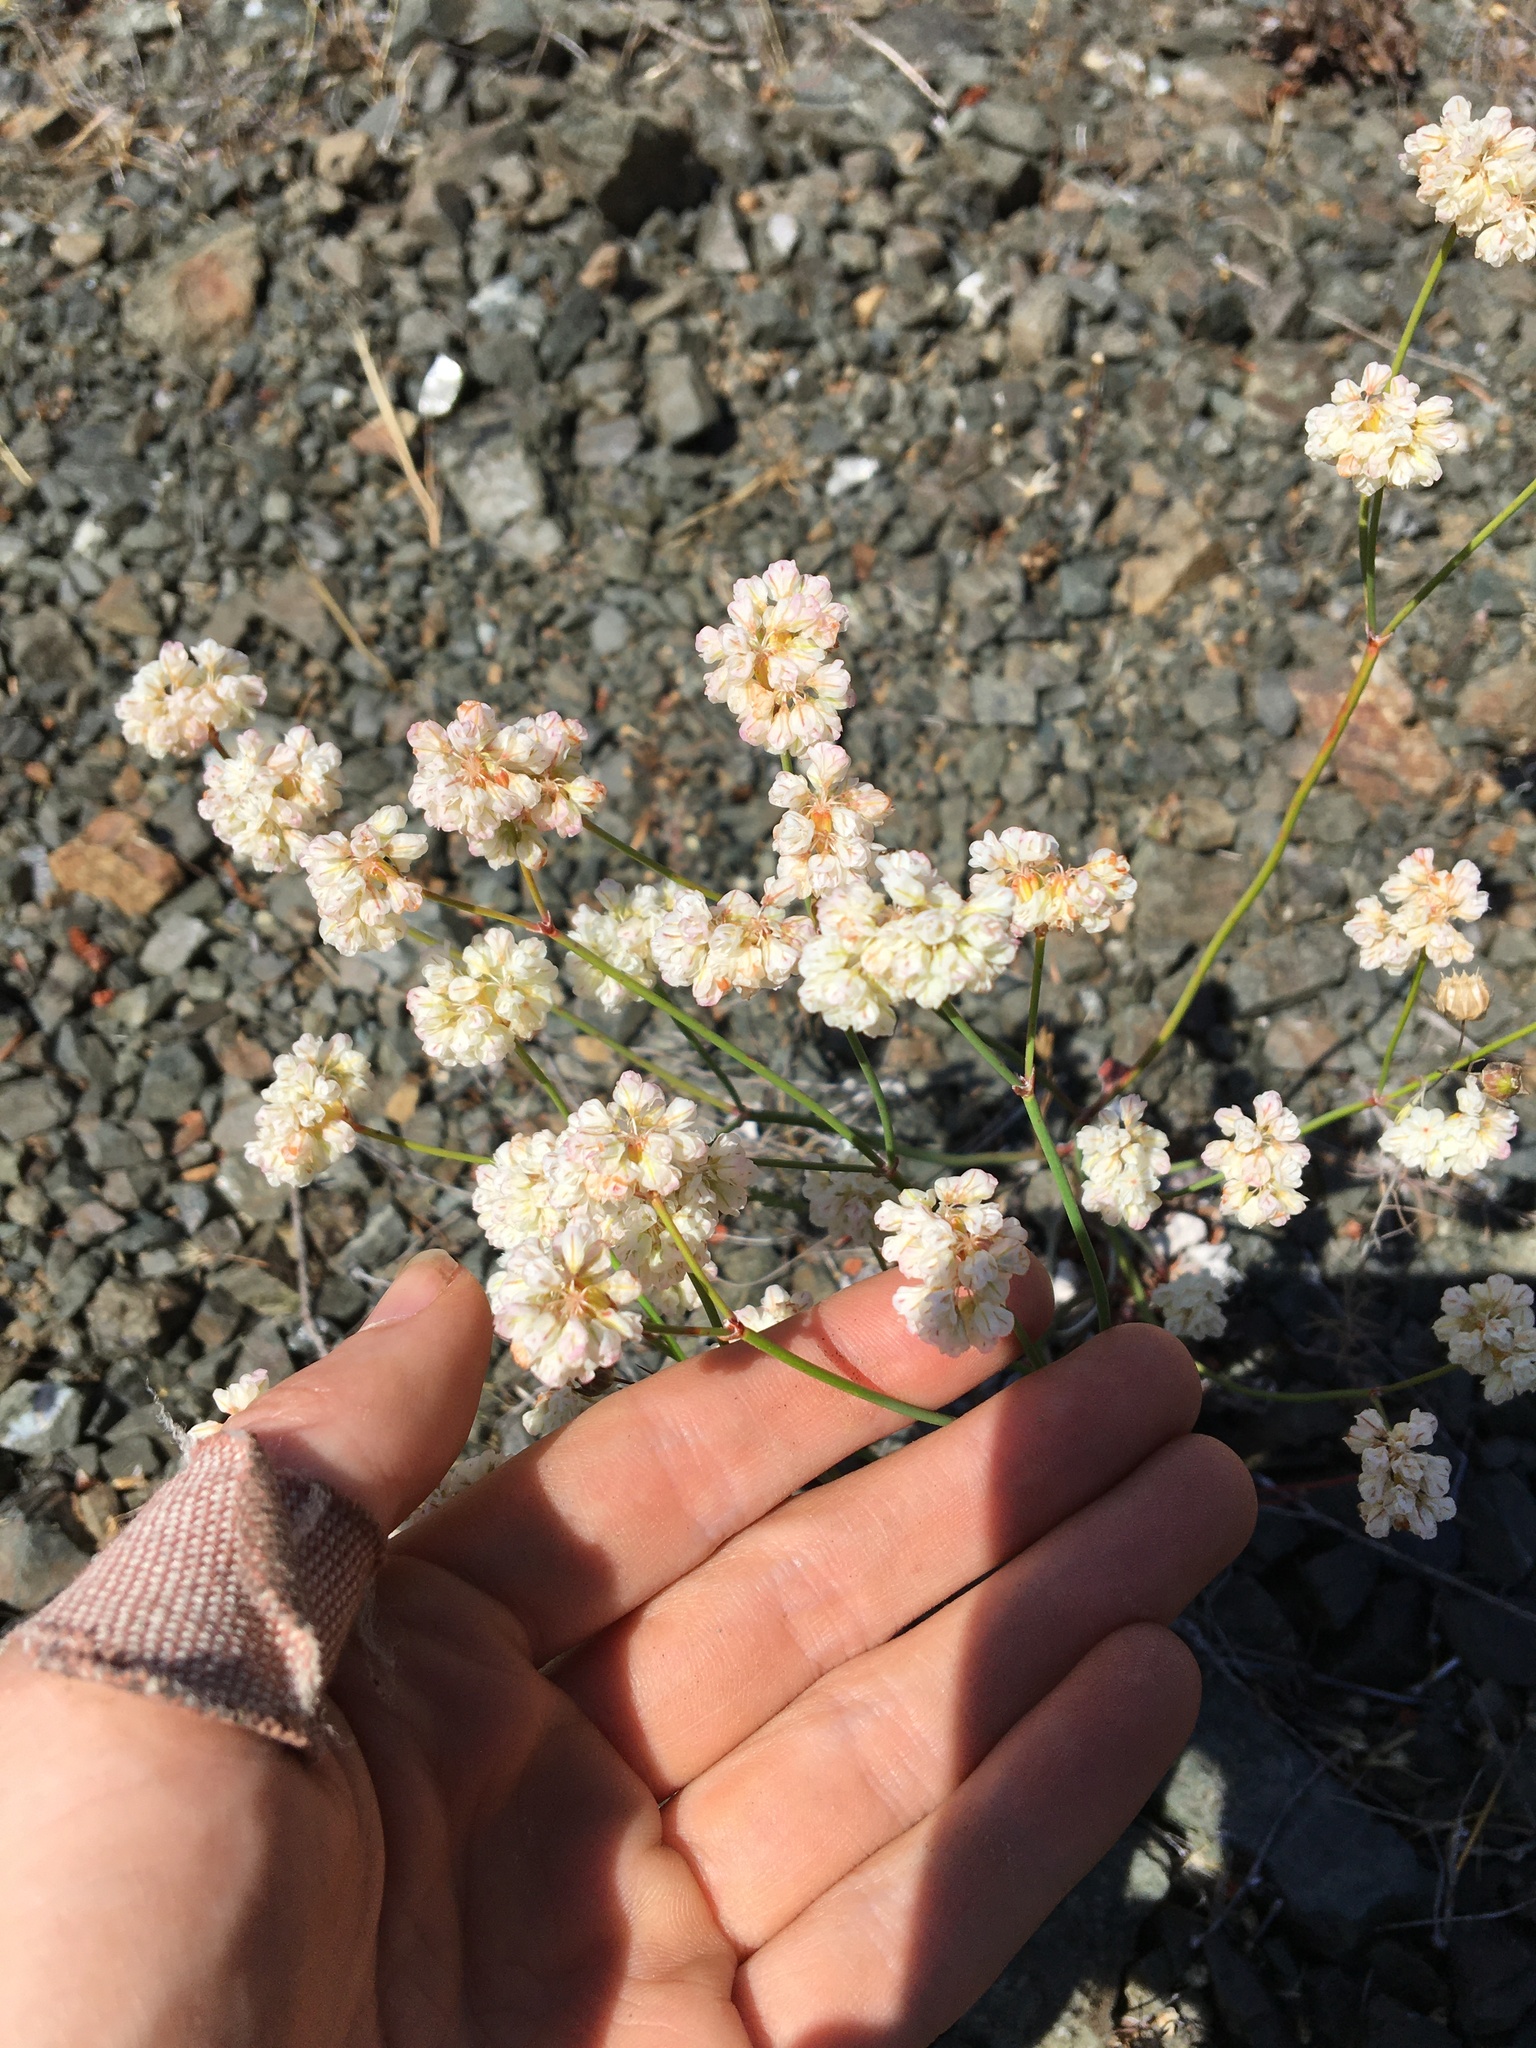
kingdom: Plantae
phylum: Tracheophyta
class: Magnoliopsida
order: Caryophyllales
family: Polygonaceae
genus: Eriogonum
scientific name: Eriogonum nudum
